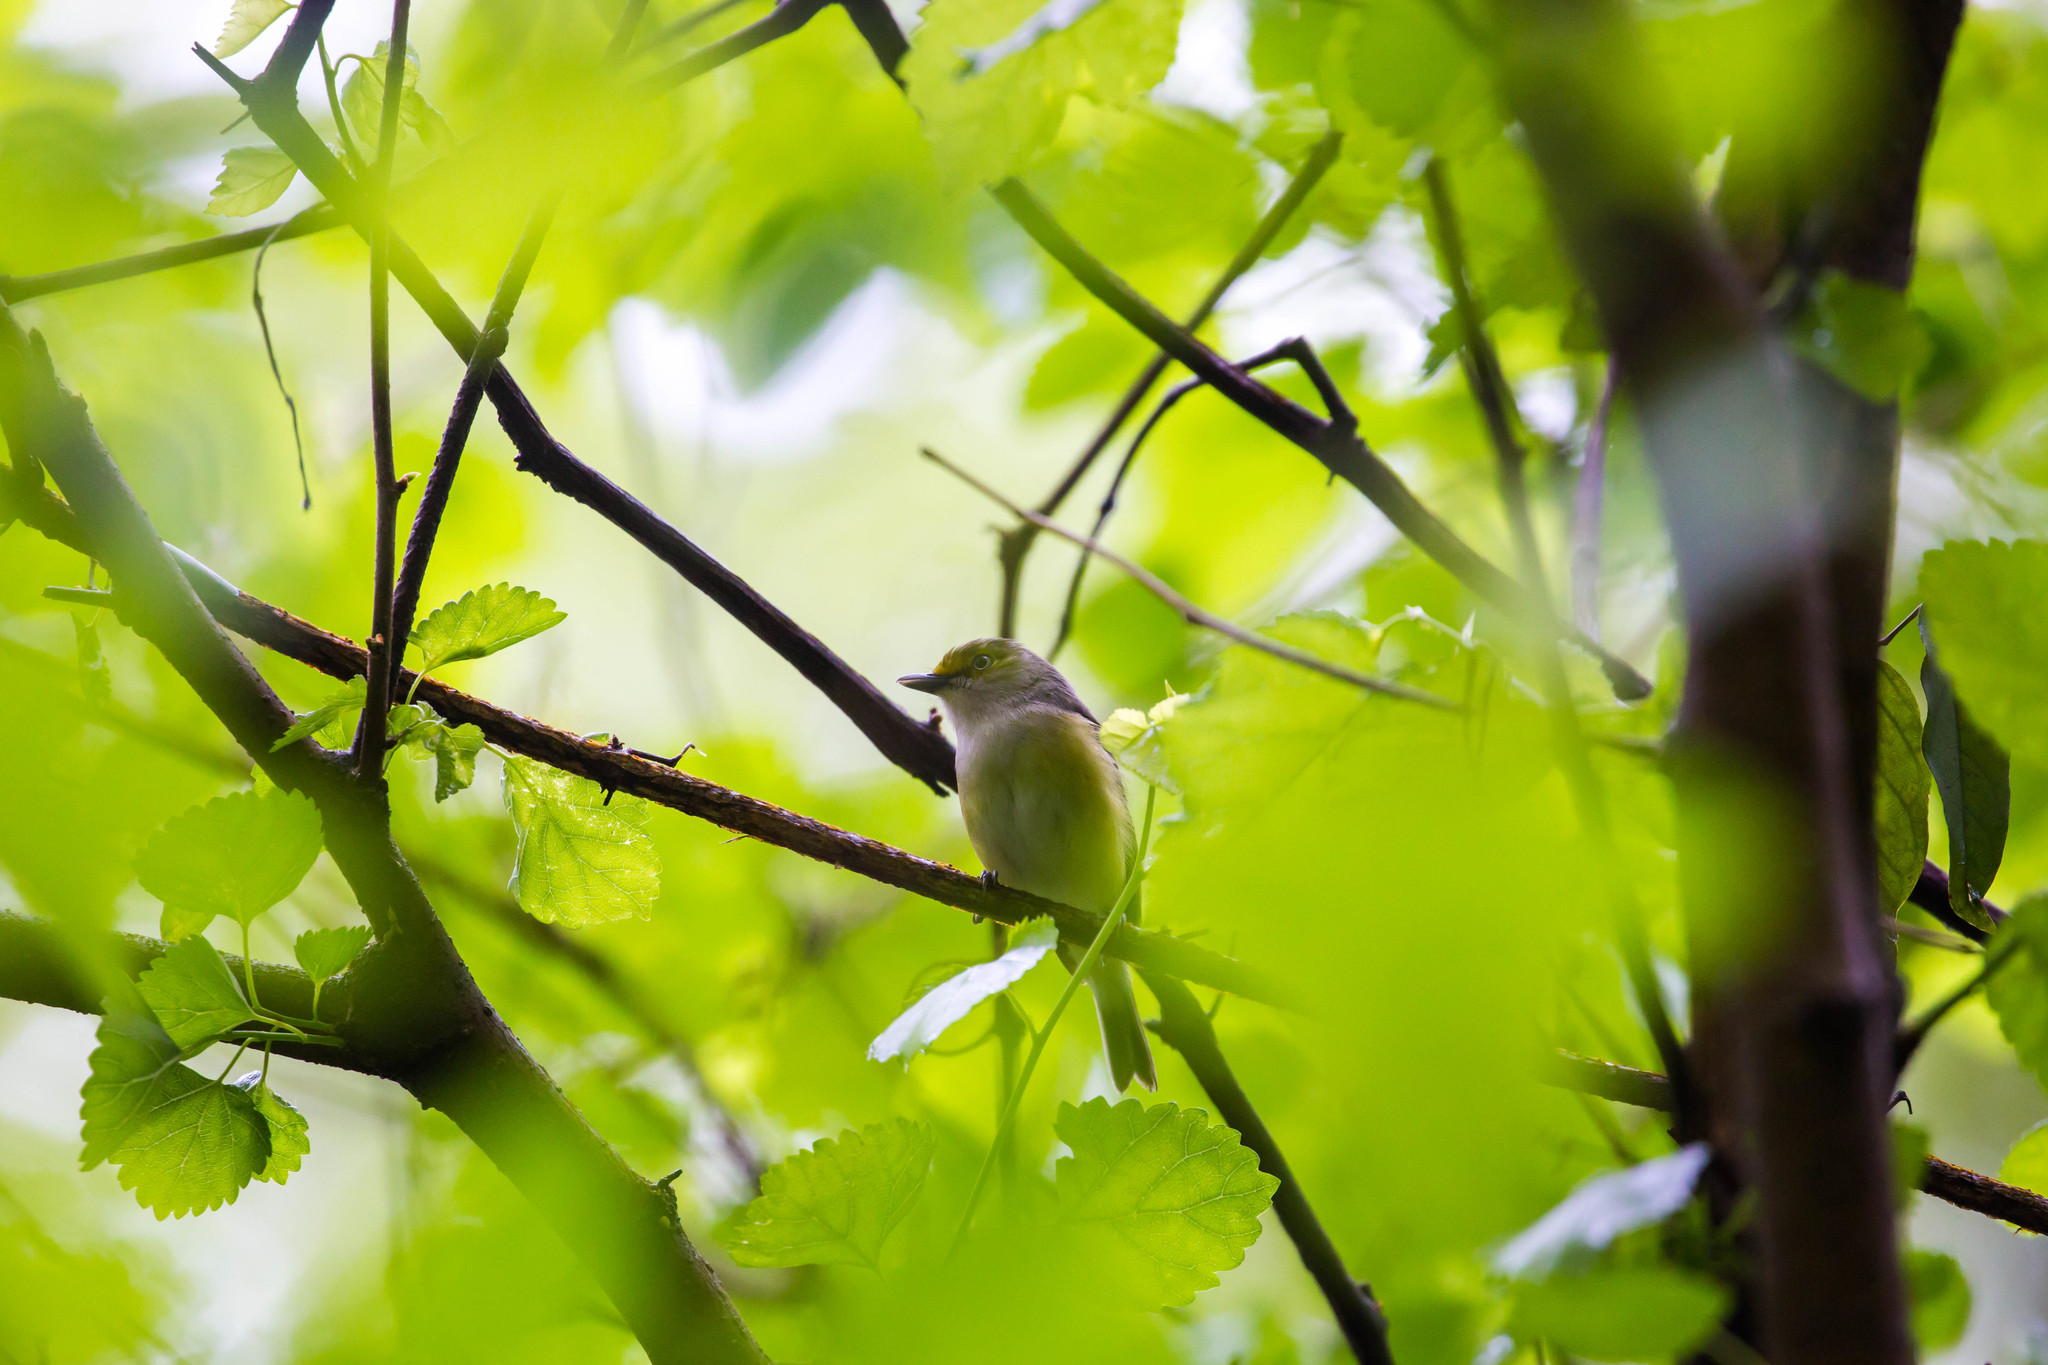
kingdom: Animalia
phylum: Chordata
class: Aves
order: Passeriformes
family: Vireonidae
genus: Vireo
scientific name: Vireo griseus
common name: White-eyed vireo
